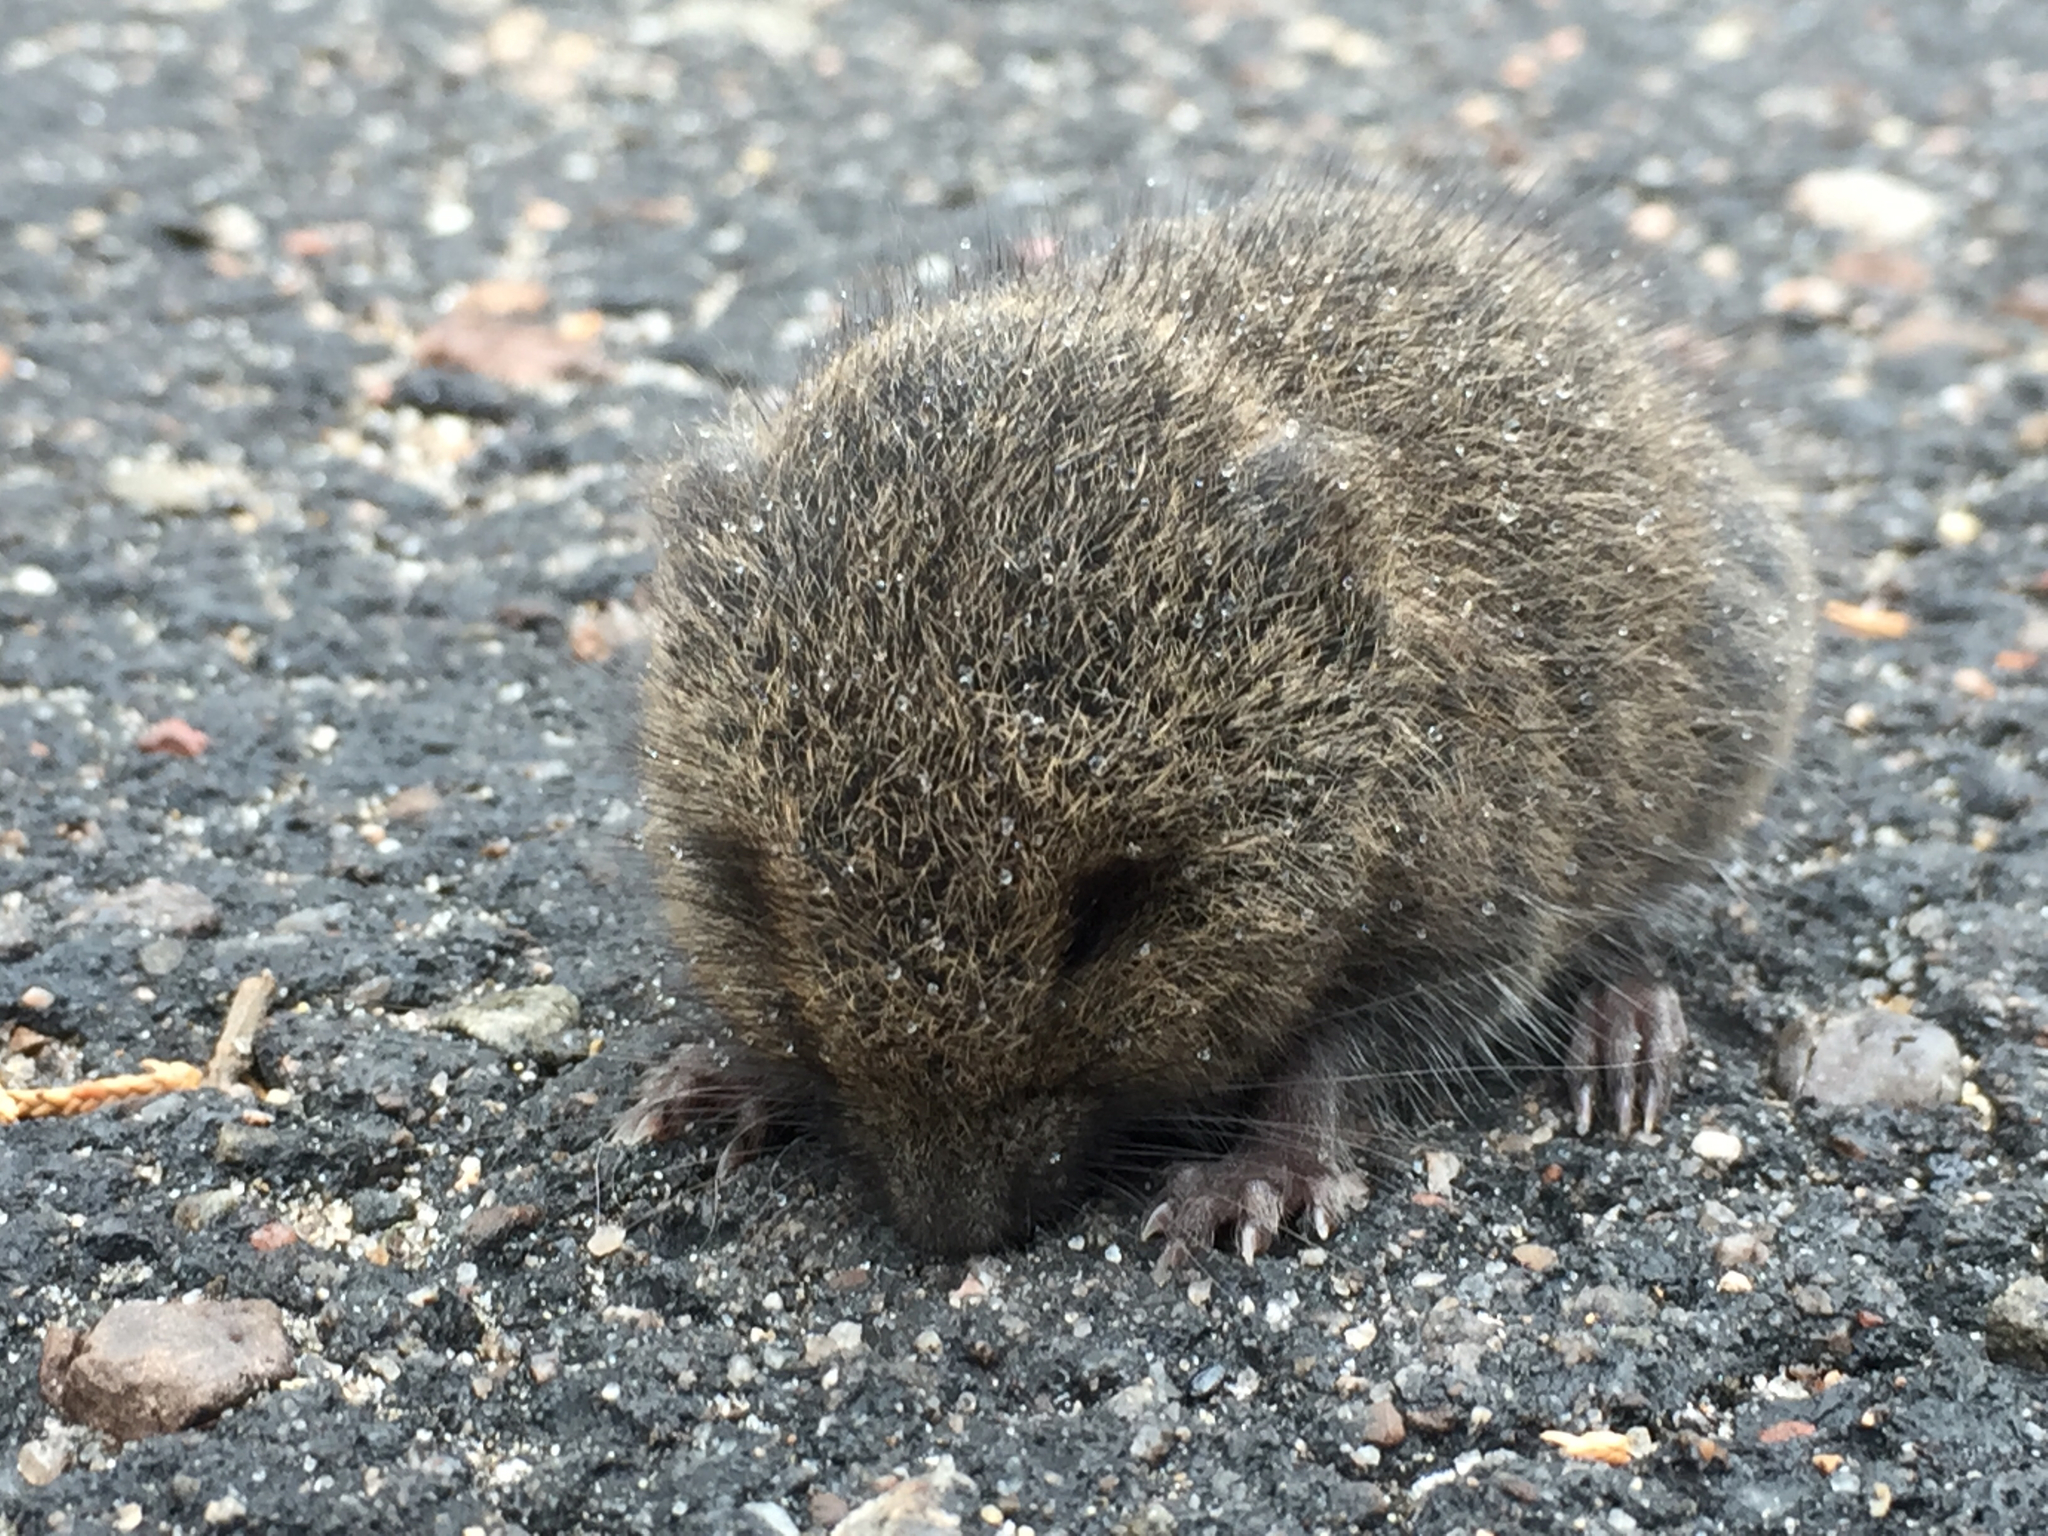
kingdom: Animalia
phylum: Chordata
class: Mammalia
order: Rodentia
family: Cricetidae
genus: Microtus
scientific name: Microtus pennsylvanicus
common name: Meadow vole
